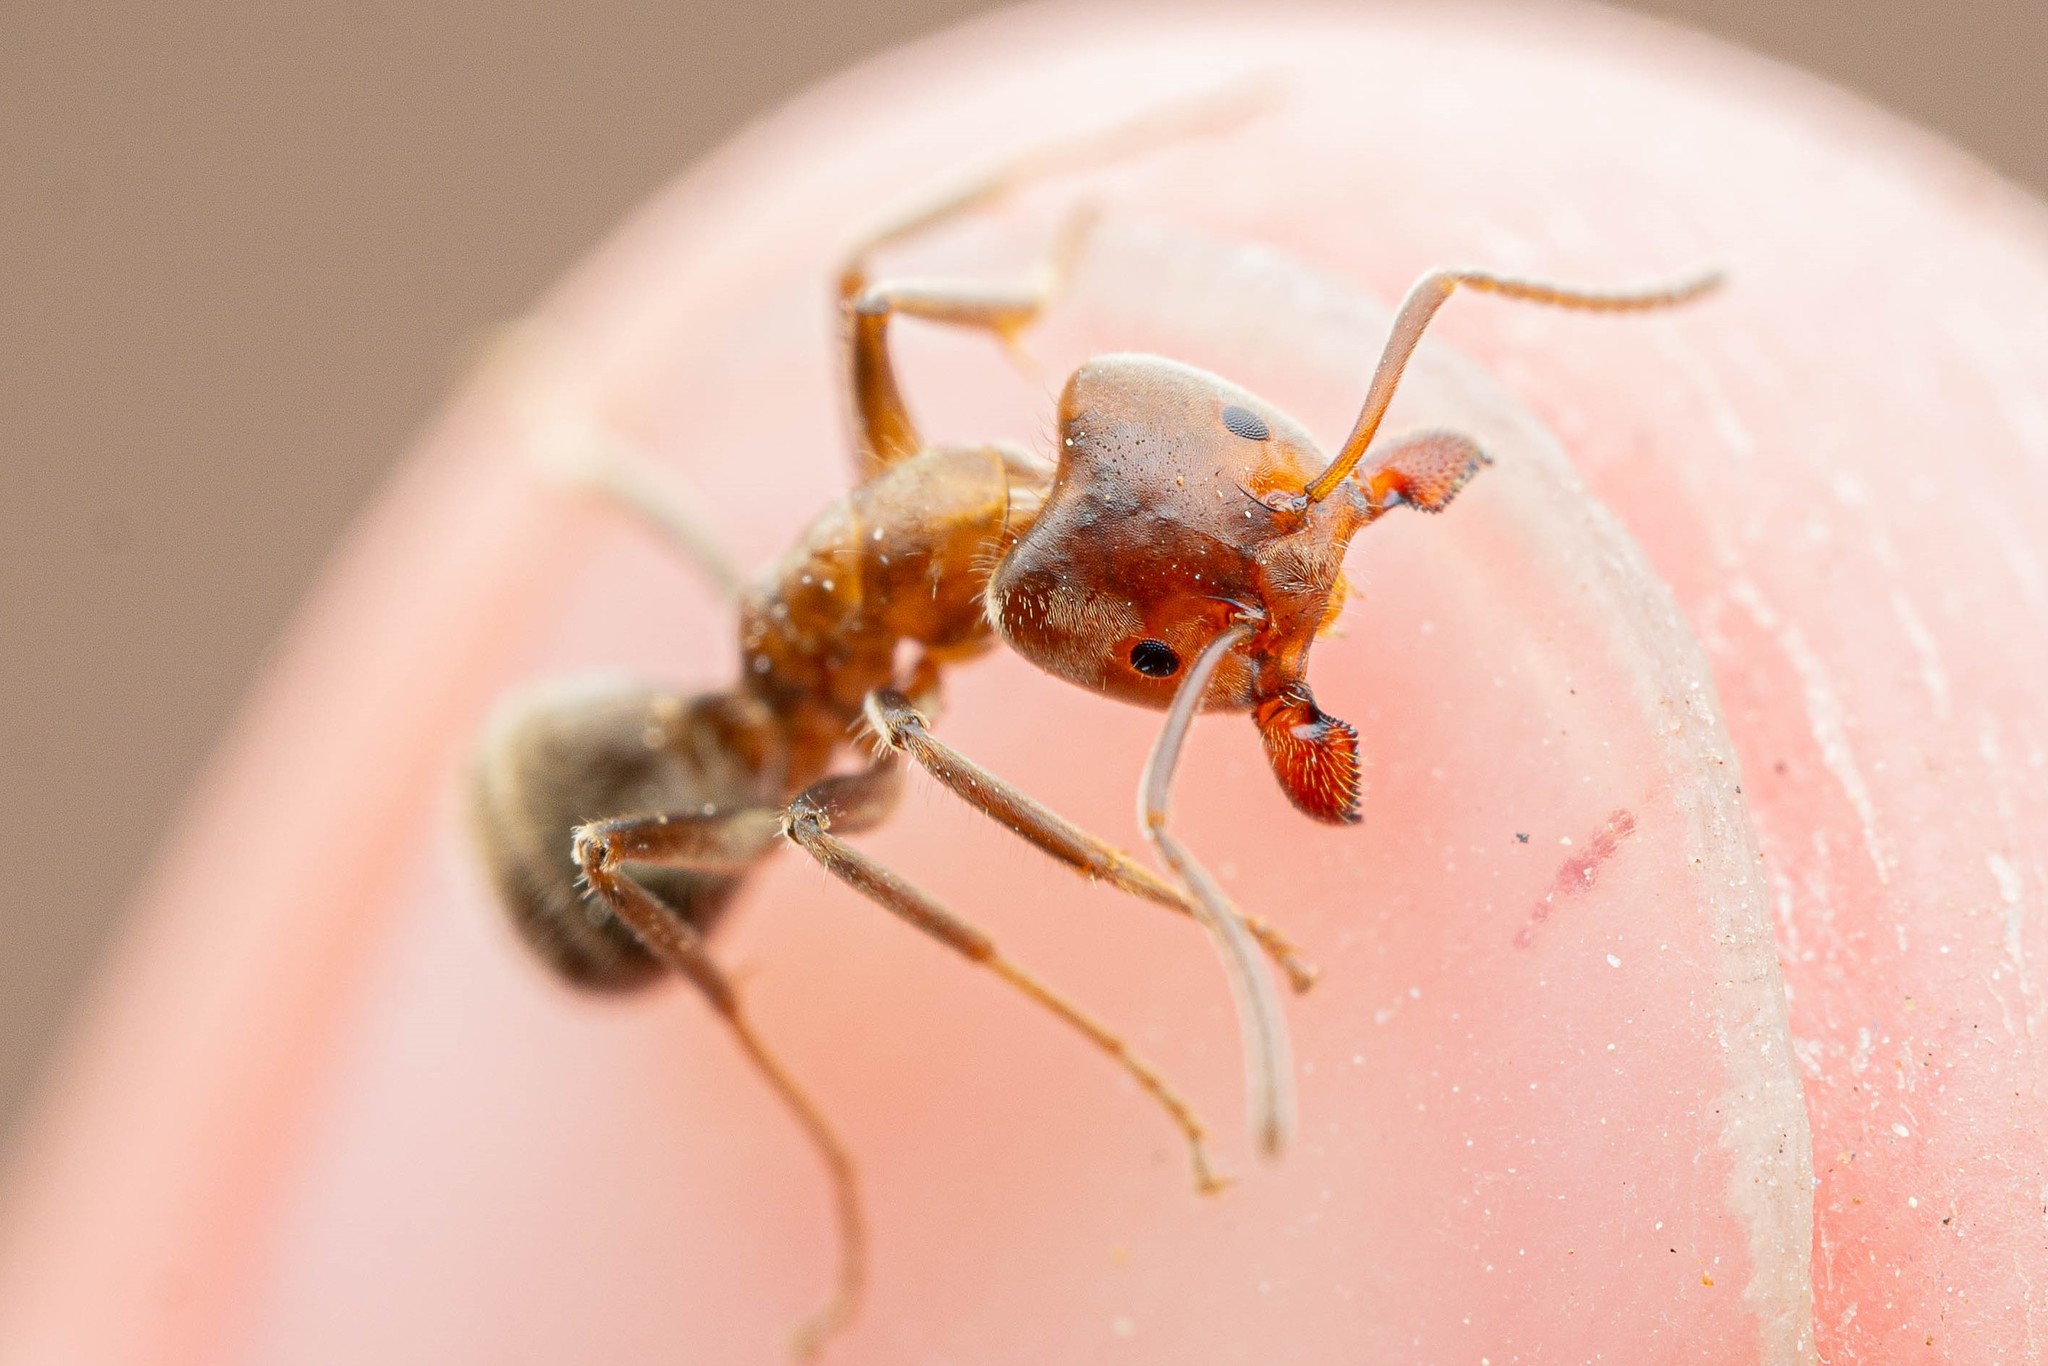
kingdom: Animalia
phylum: Arthropoda
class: Insecta
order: Hymenoptera
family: Formicidae
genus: Liometopum
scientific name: Liometopum apiculatum
